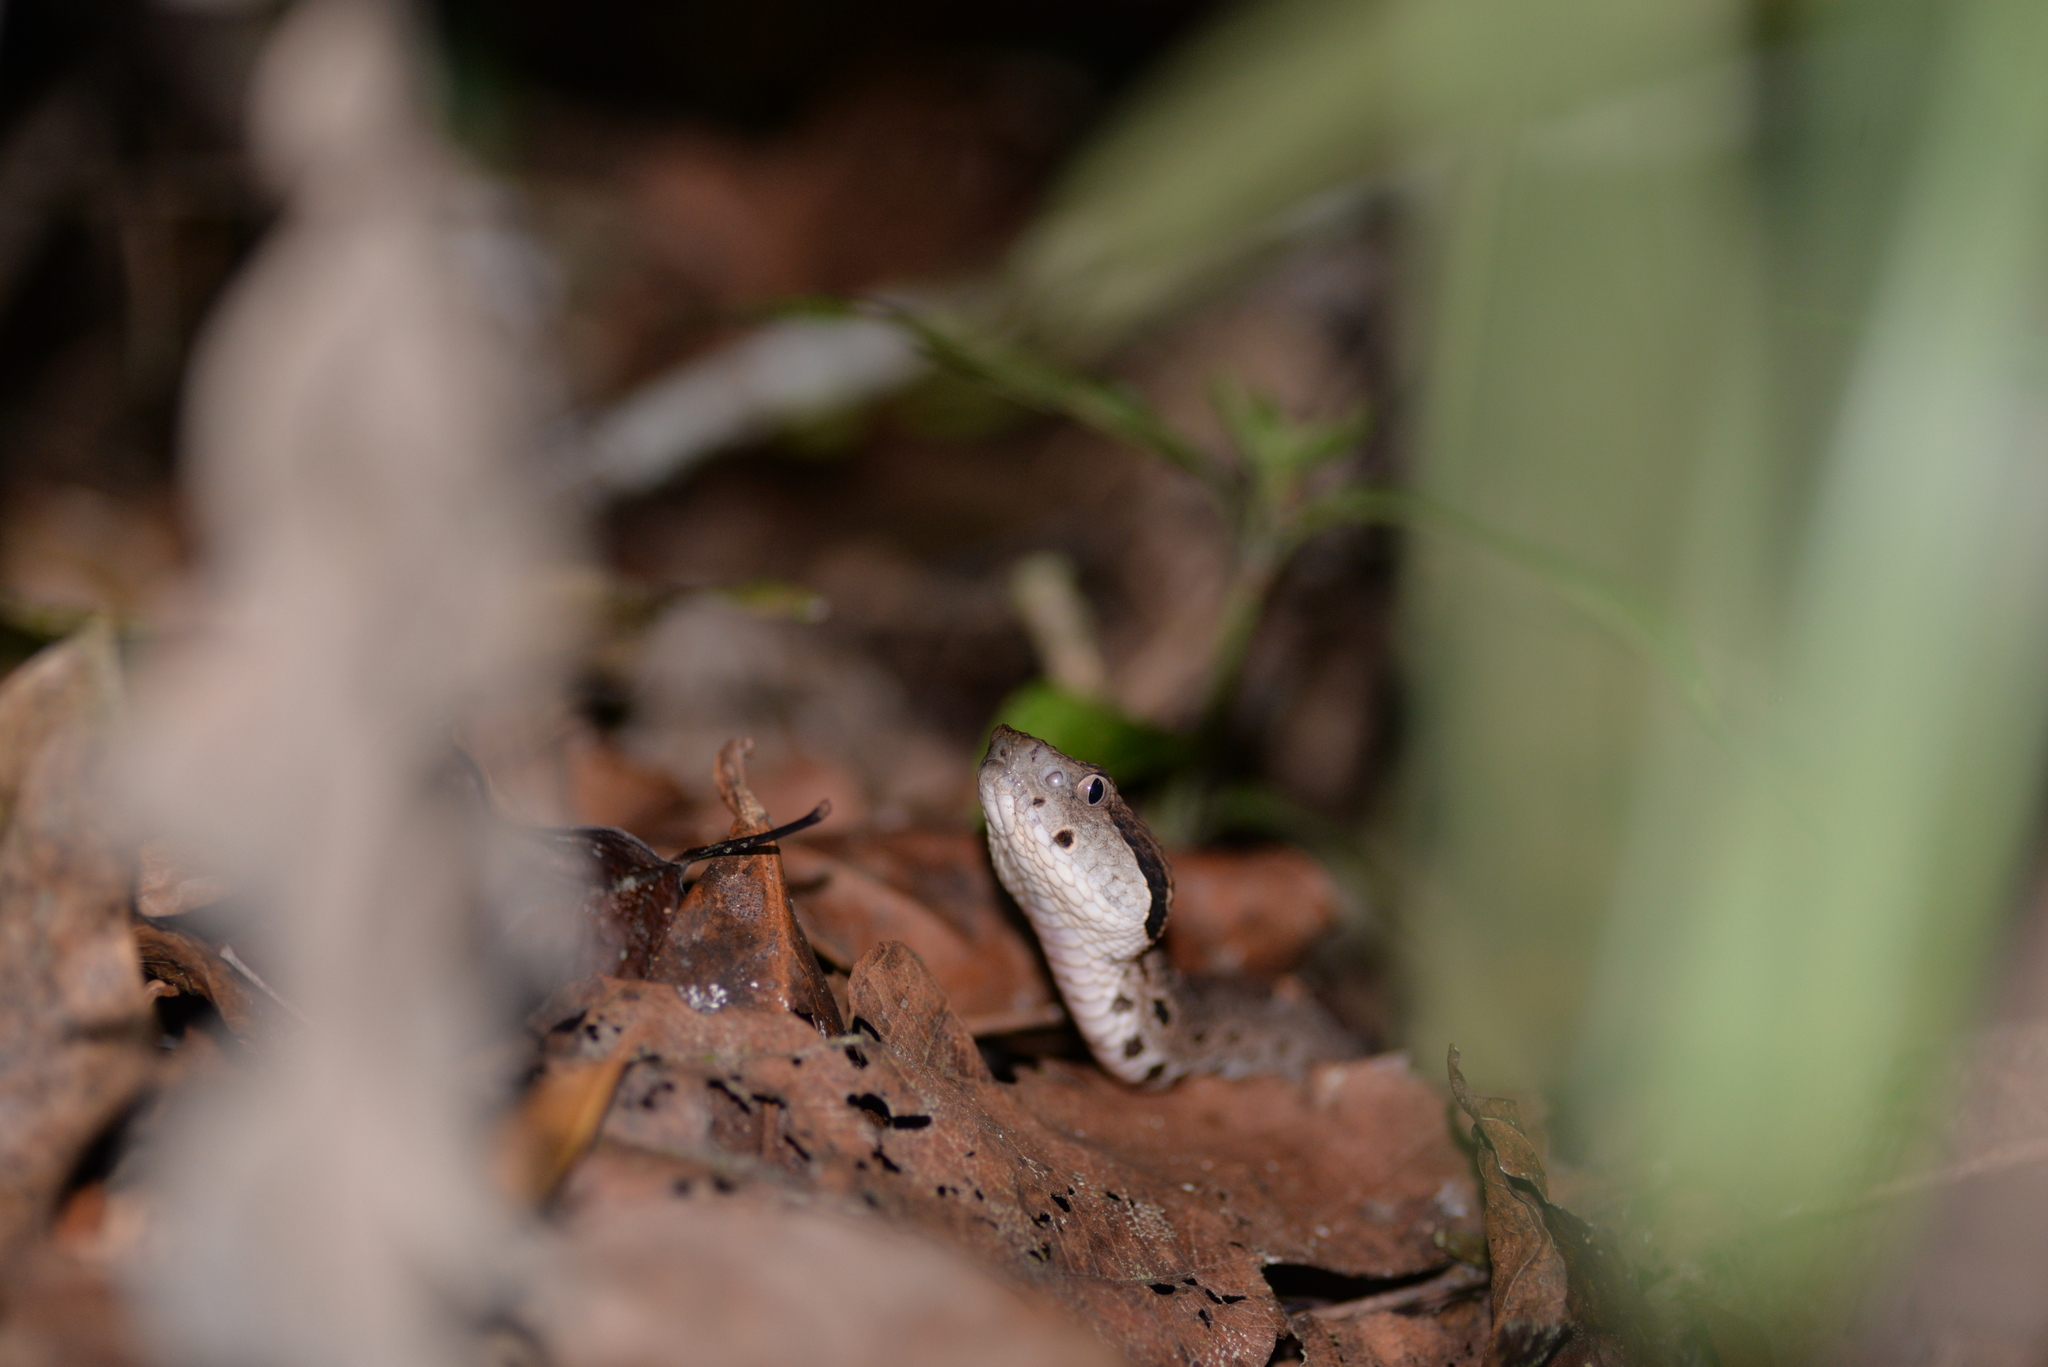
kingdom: Animalia
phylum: Chordata
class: Squamata
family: Viperidae
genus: Metlapilcoatlus
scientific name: Metlapilcoatlus mexicanus
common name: Central american jumping pit viper
